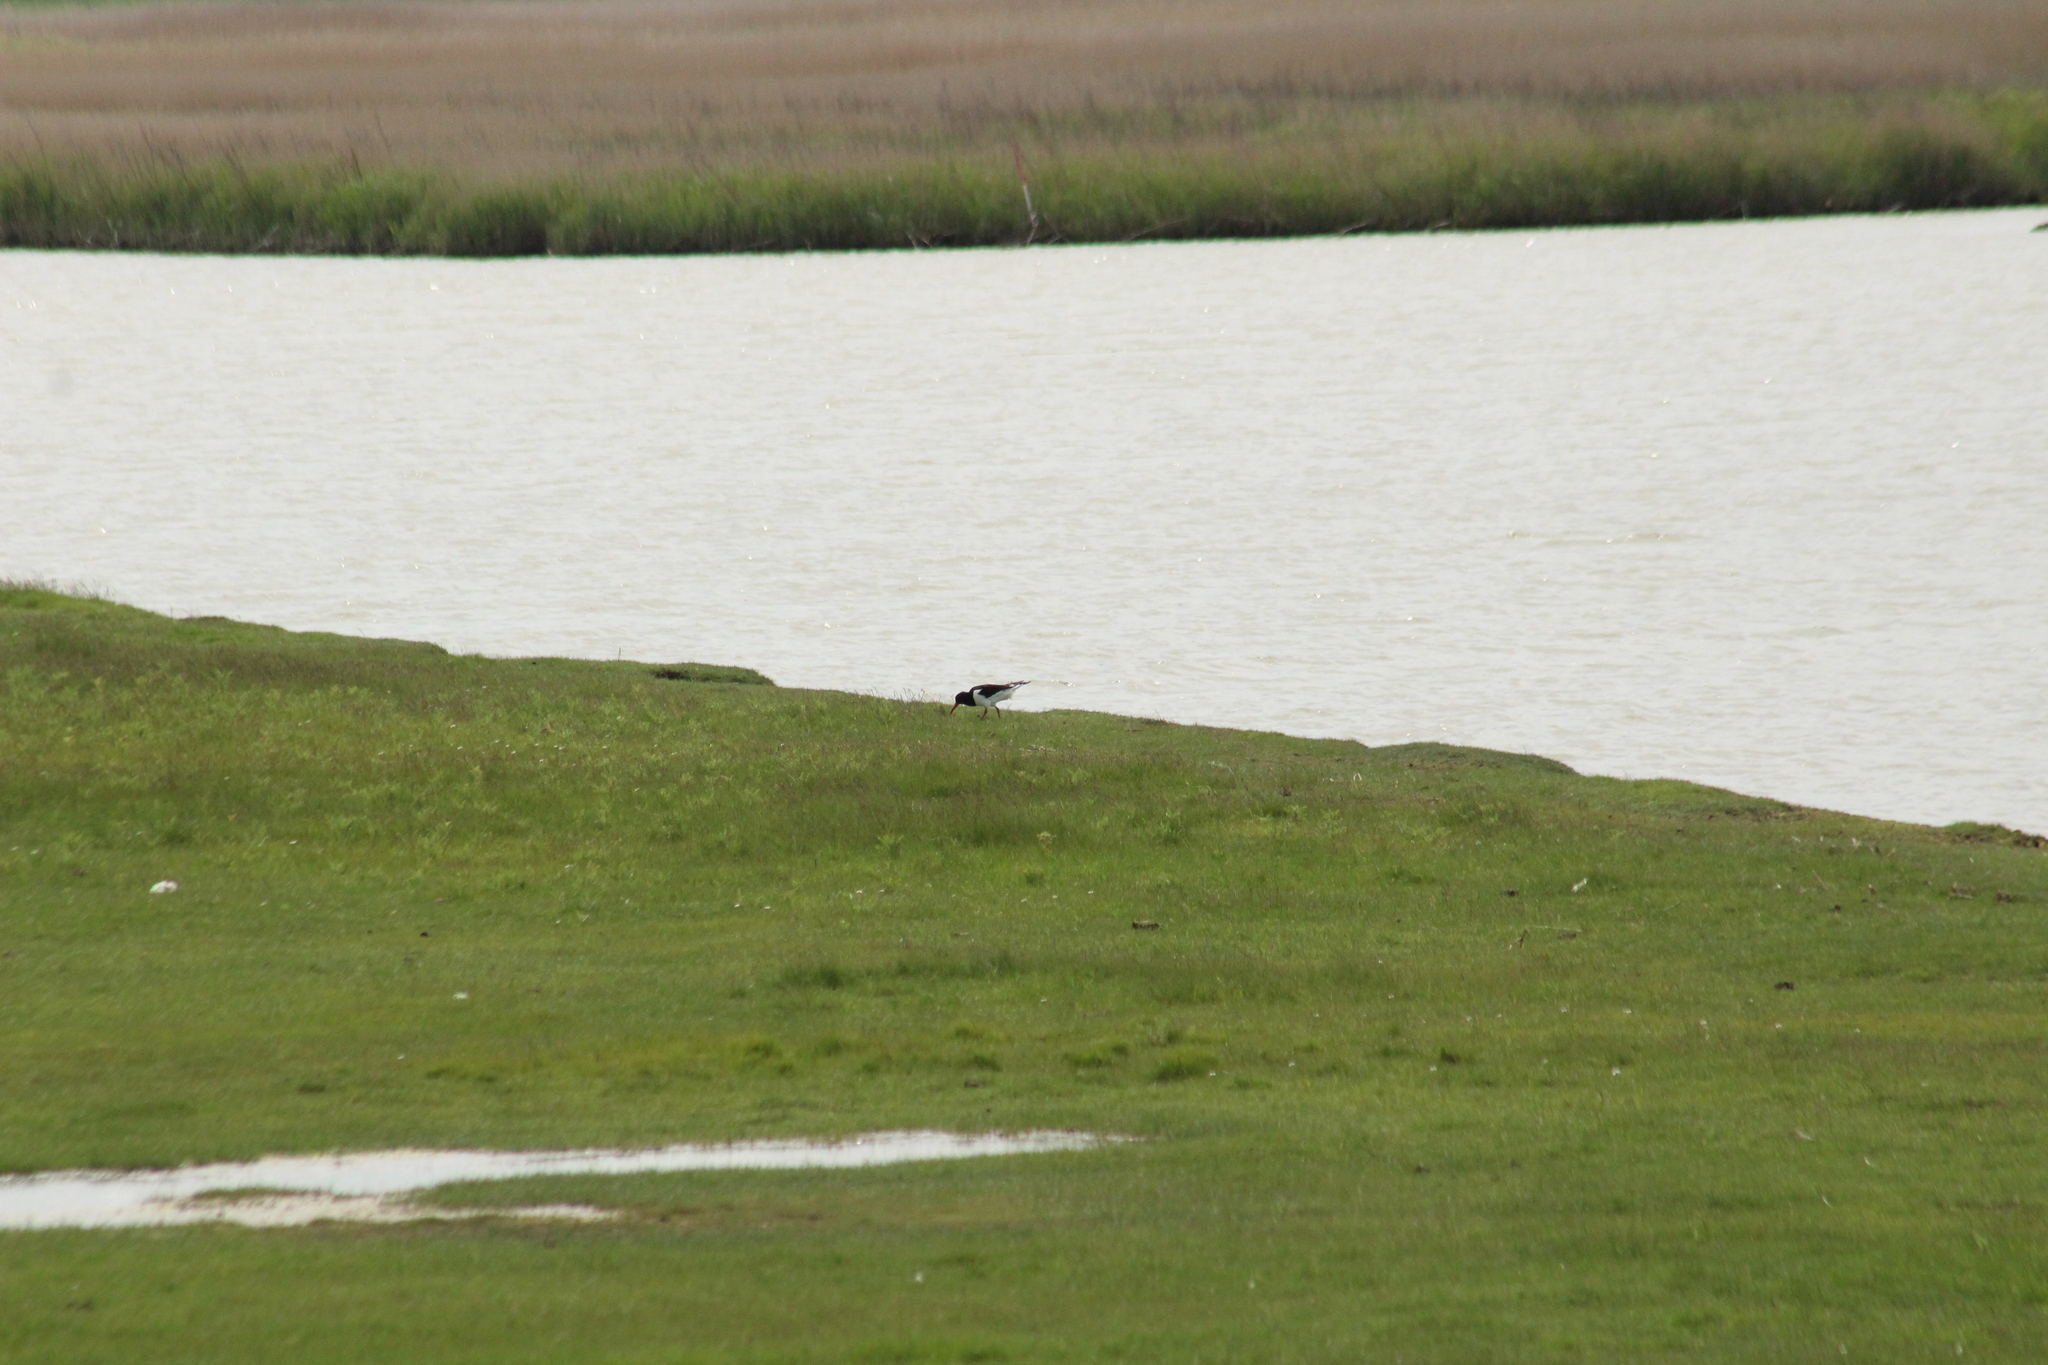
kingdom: Animalia
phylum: Chordata
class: Aves
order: Charadriiformes
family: Haematopodidae
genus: Haematopus
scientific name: Haematopus ostralegus
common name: Eurasian oystercatcher
